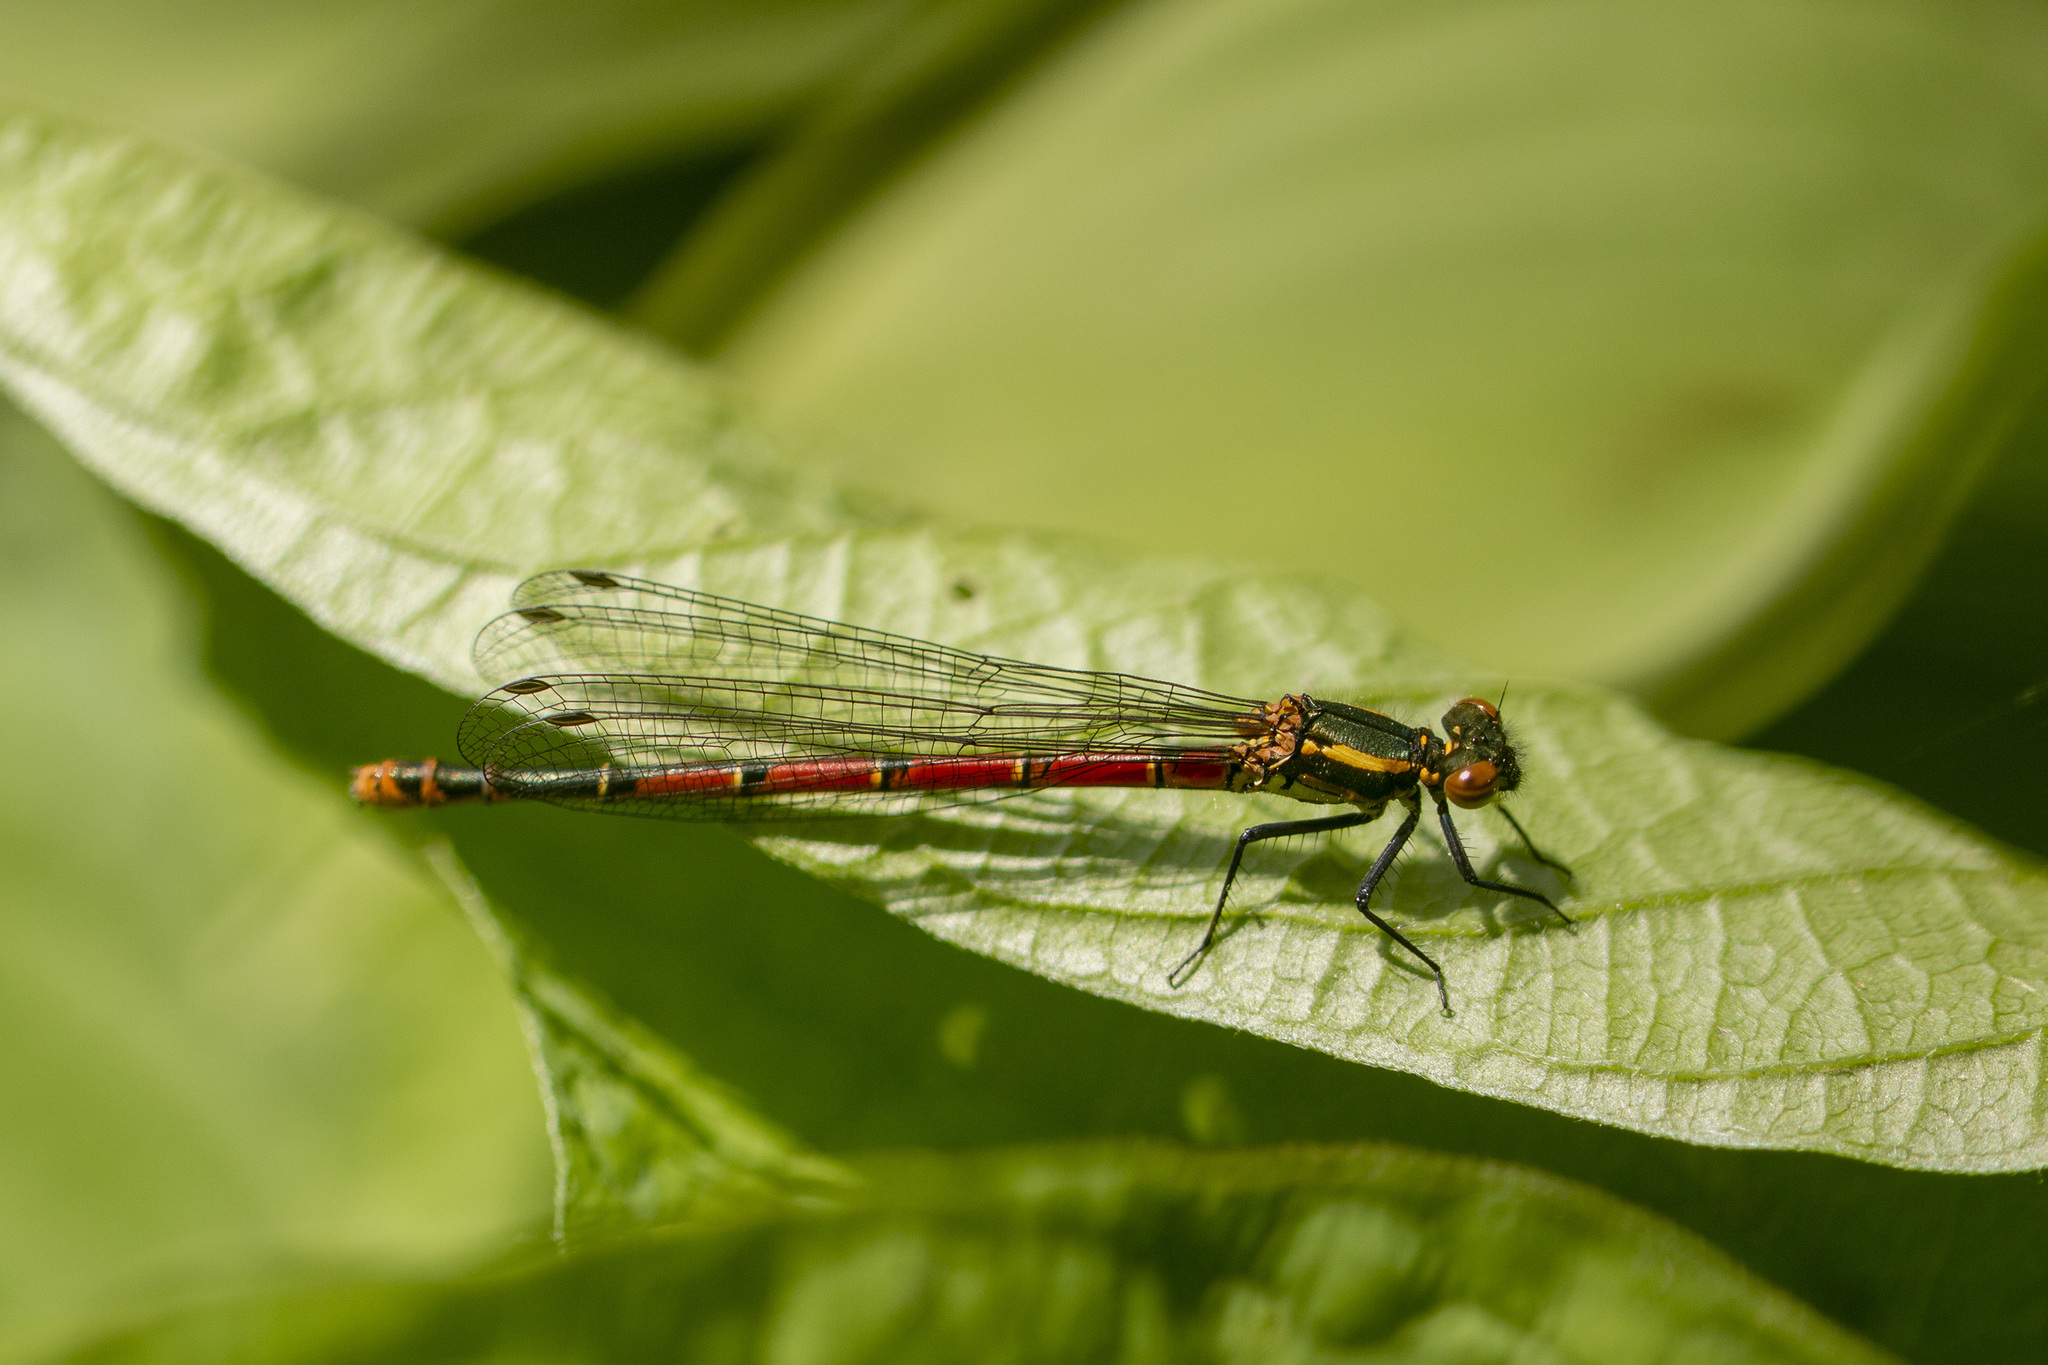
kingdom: Animalia
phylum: Arthropoda
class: Insecta
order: Odonata
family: Coenagrionidae
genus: Pyrrhosoma
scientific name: Pyrrhosoma nymphula
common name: Large red damsel
